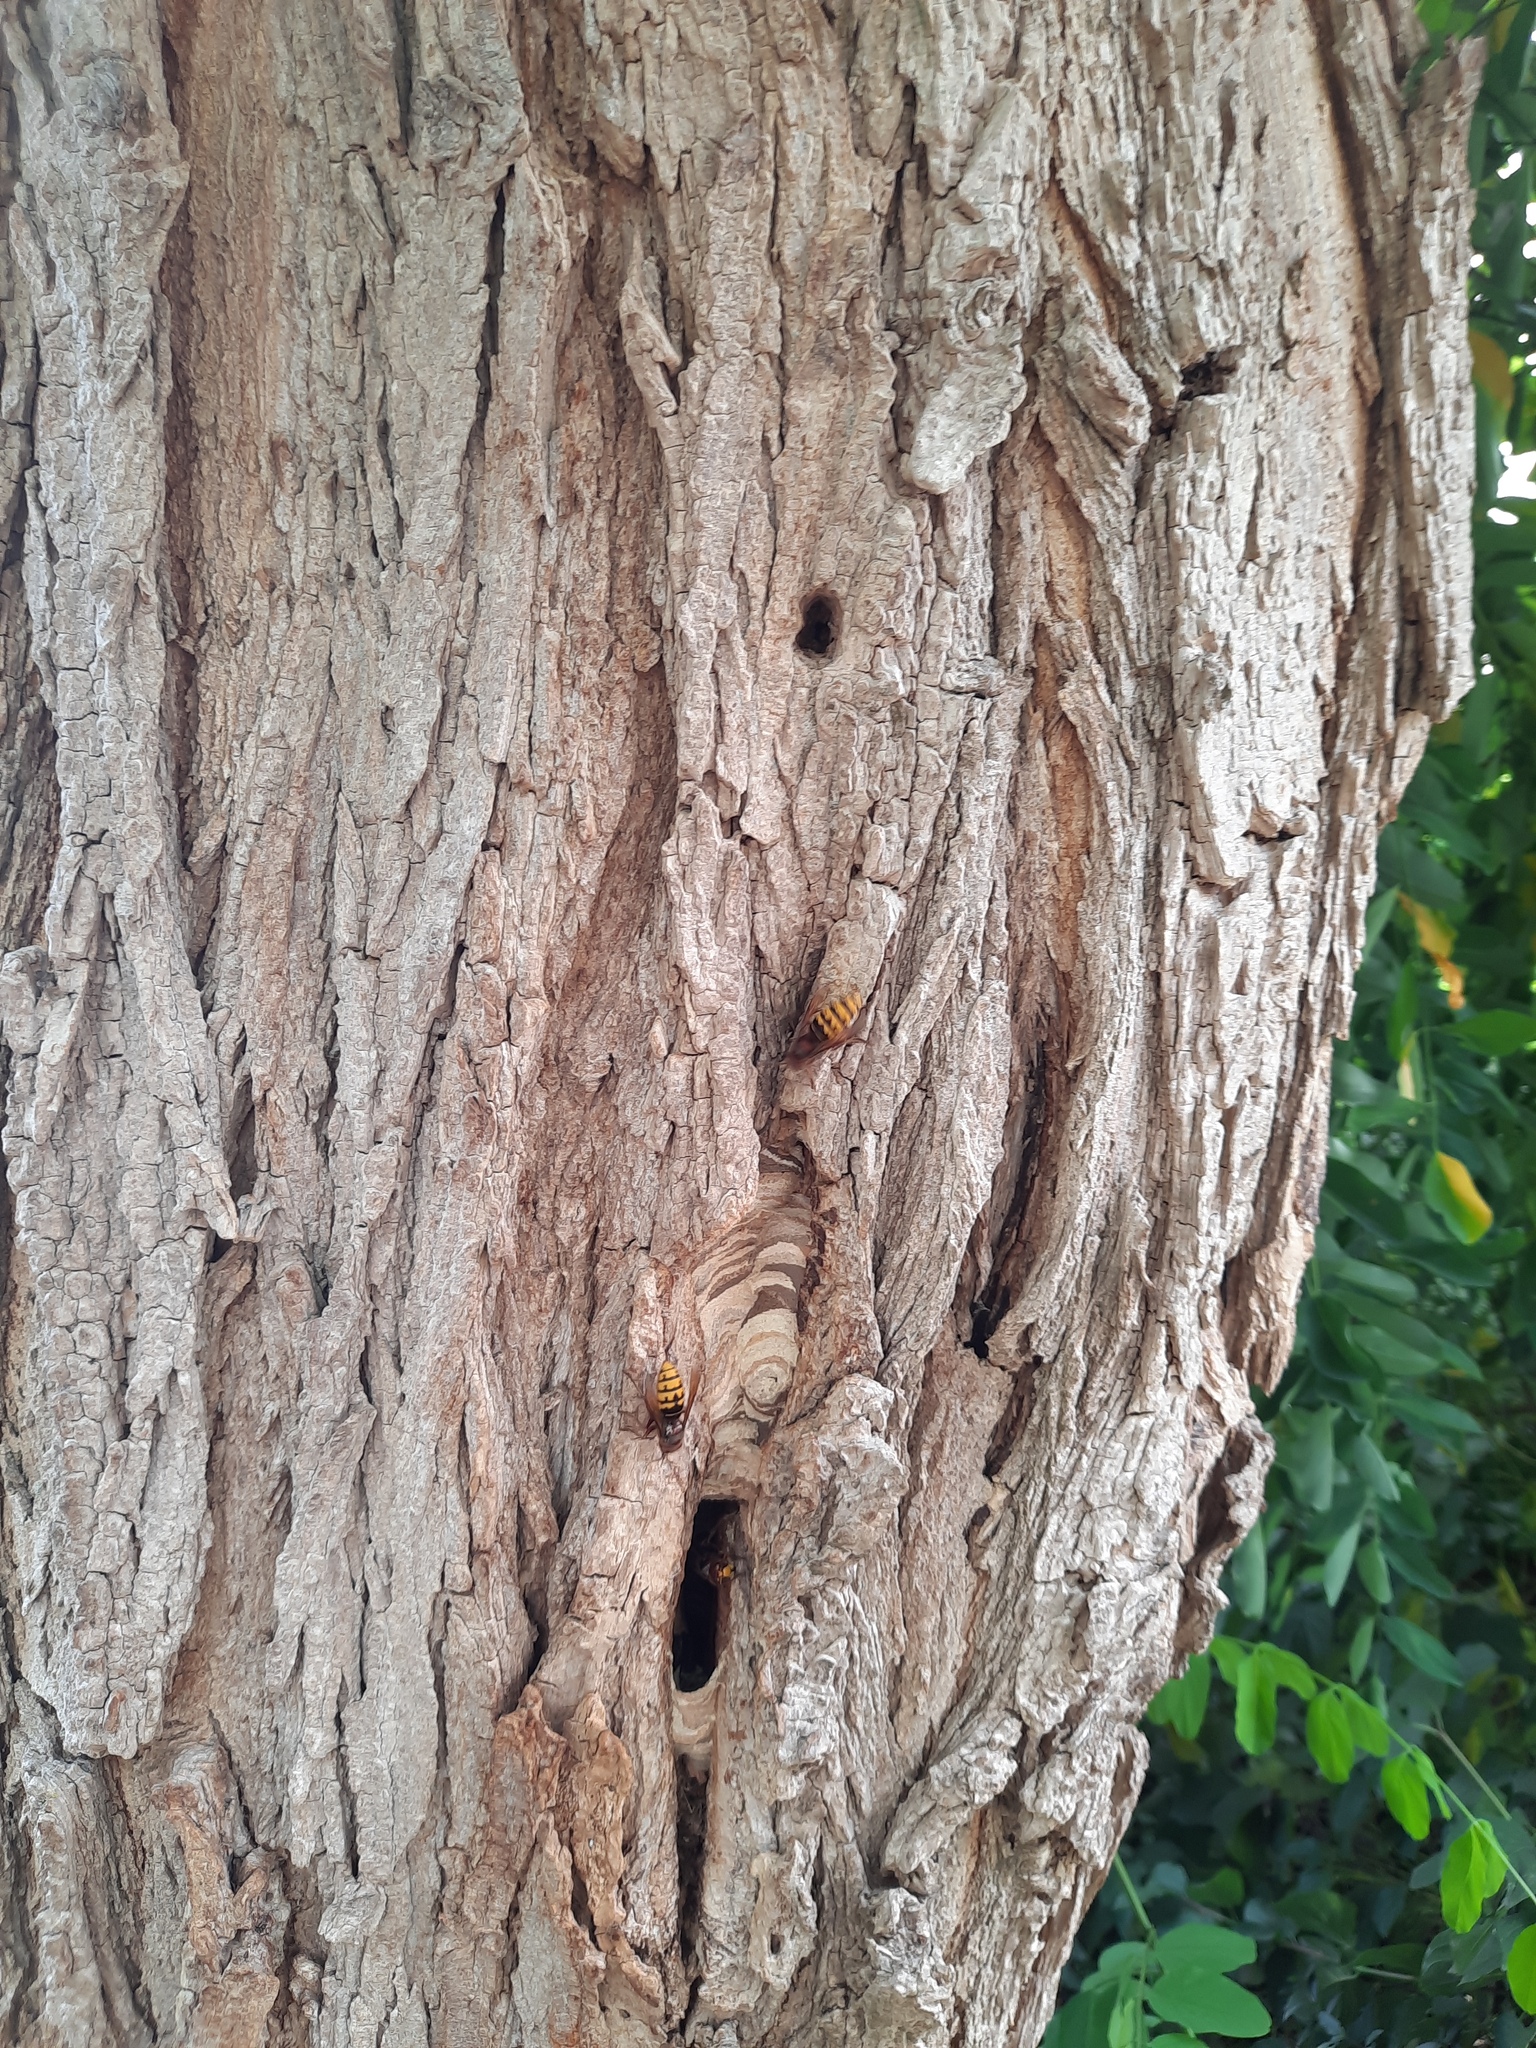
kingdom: Animalia
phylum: Arthropoda
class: Insecta
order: Hymenoptera
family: Vespidae
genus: Vespa
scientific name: Vespa crabro
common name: Hornet
